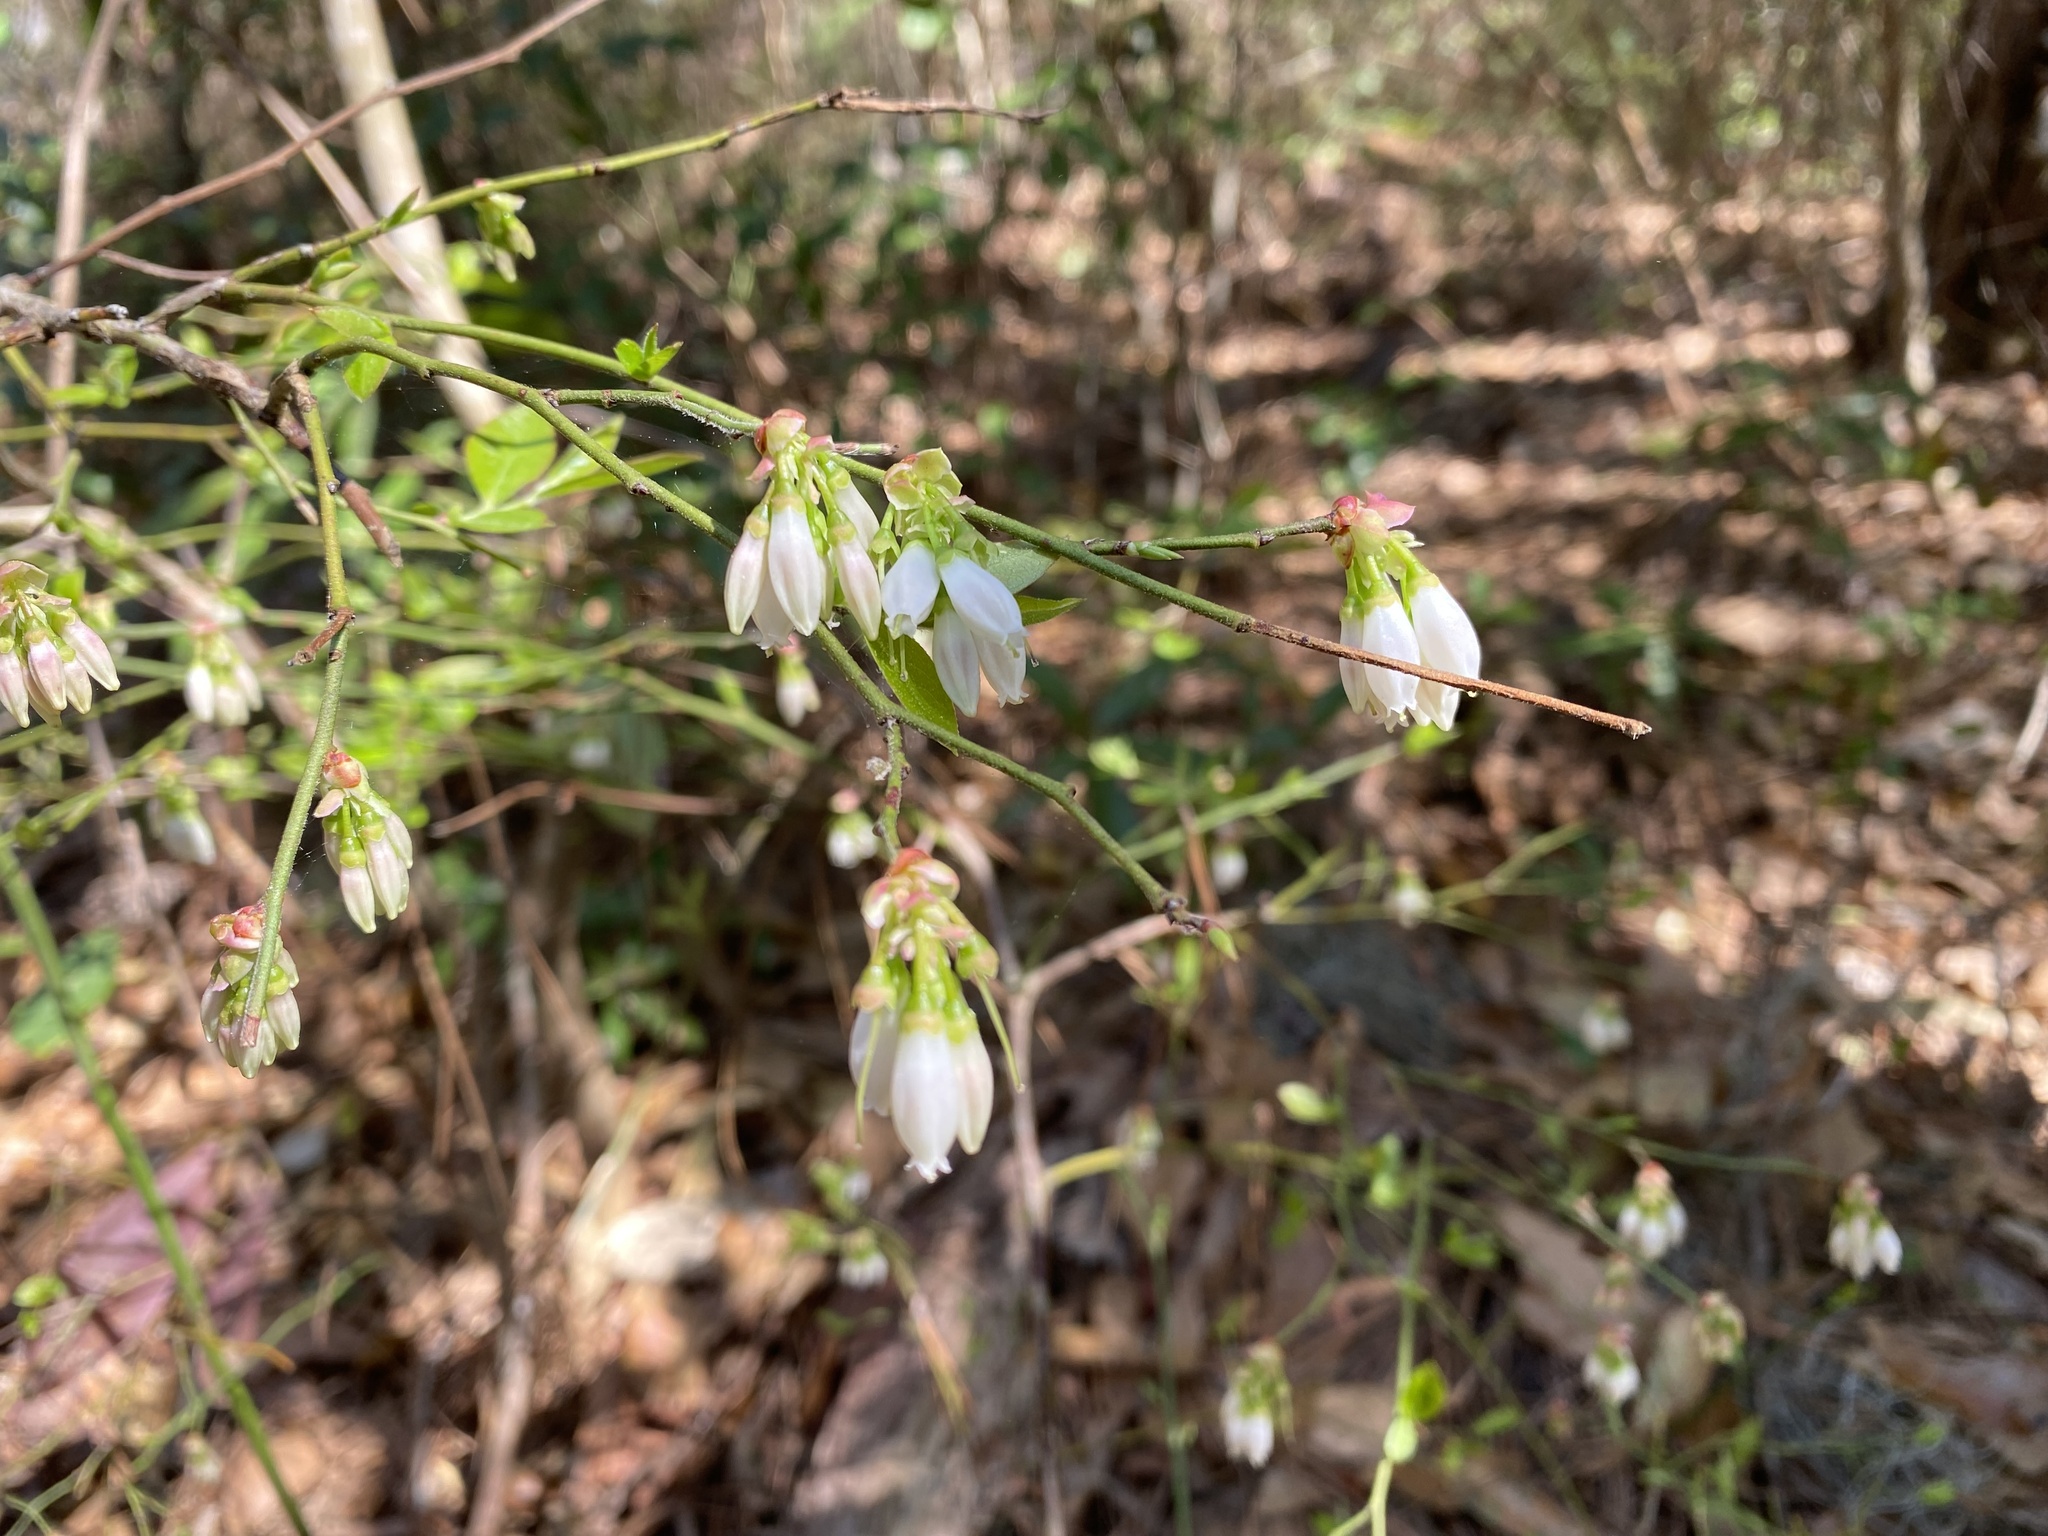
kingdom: Plantae
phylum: Tracheophyta
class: Magnoliopsida
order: Ericales
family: Ericaceae
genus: Vaccinium
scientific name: Vaccinium corymbosum
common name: Blueberry
